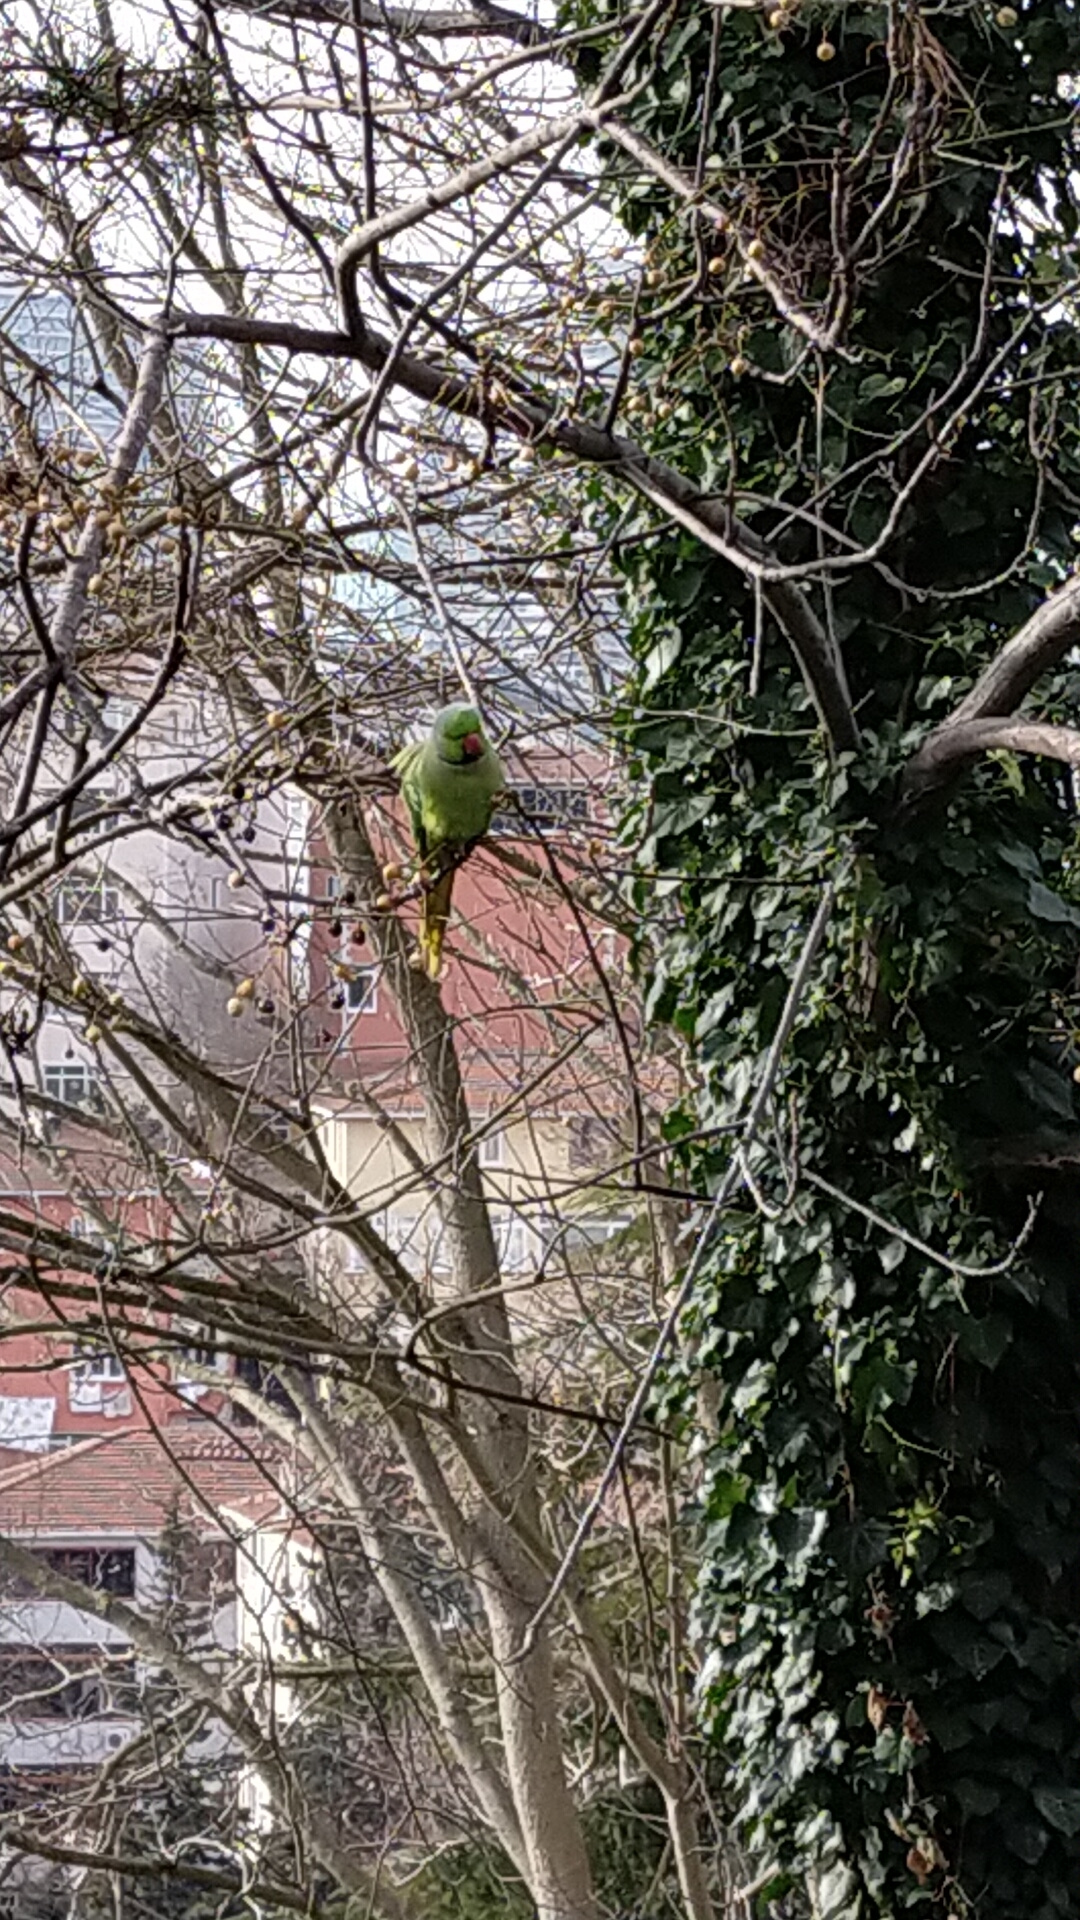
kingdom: Animalia
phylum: Chordata
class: Aves
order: Psittaciformes
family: Psittacidae
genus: Psittacula
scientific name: Psittacula krameri
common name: Rose-ringed parakeet
